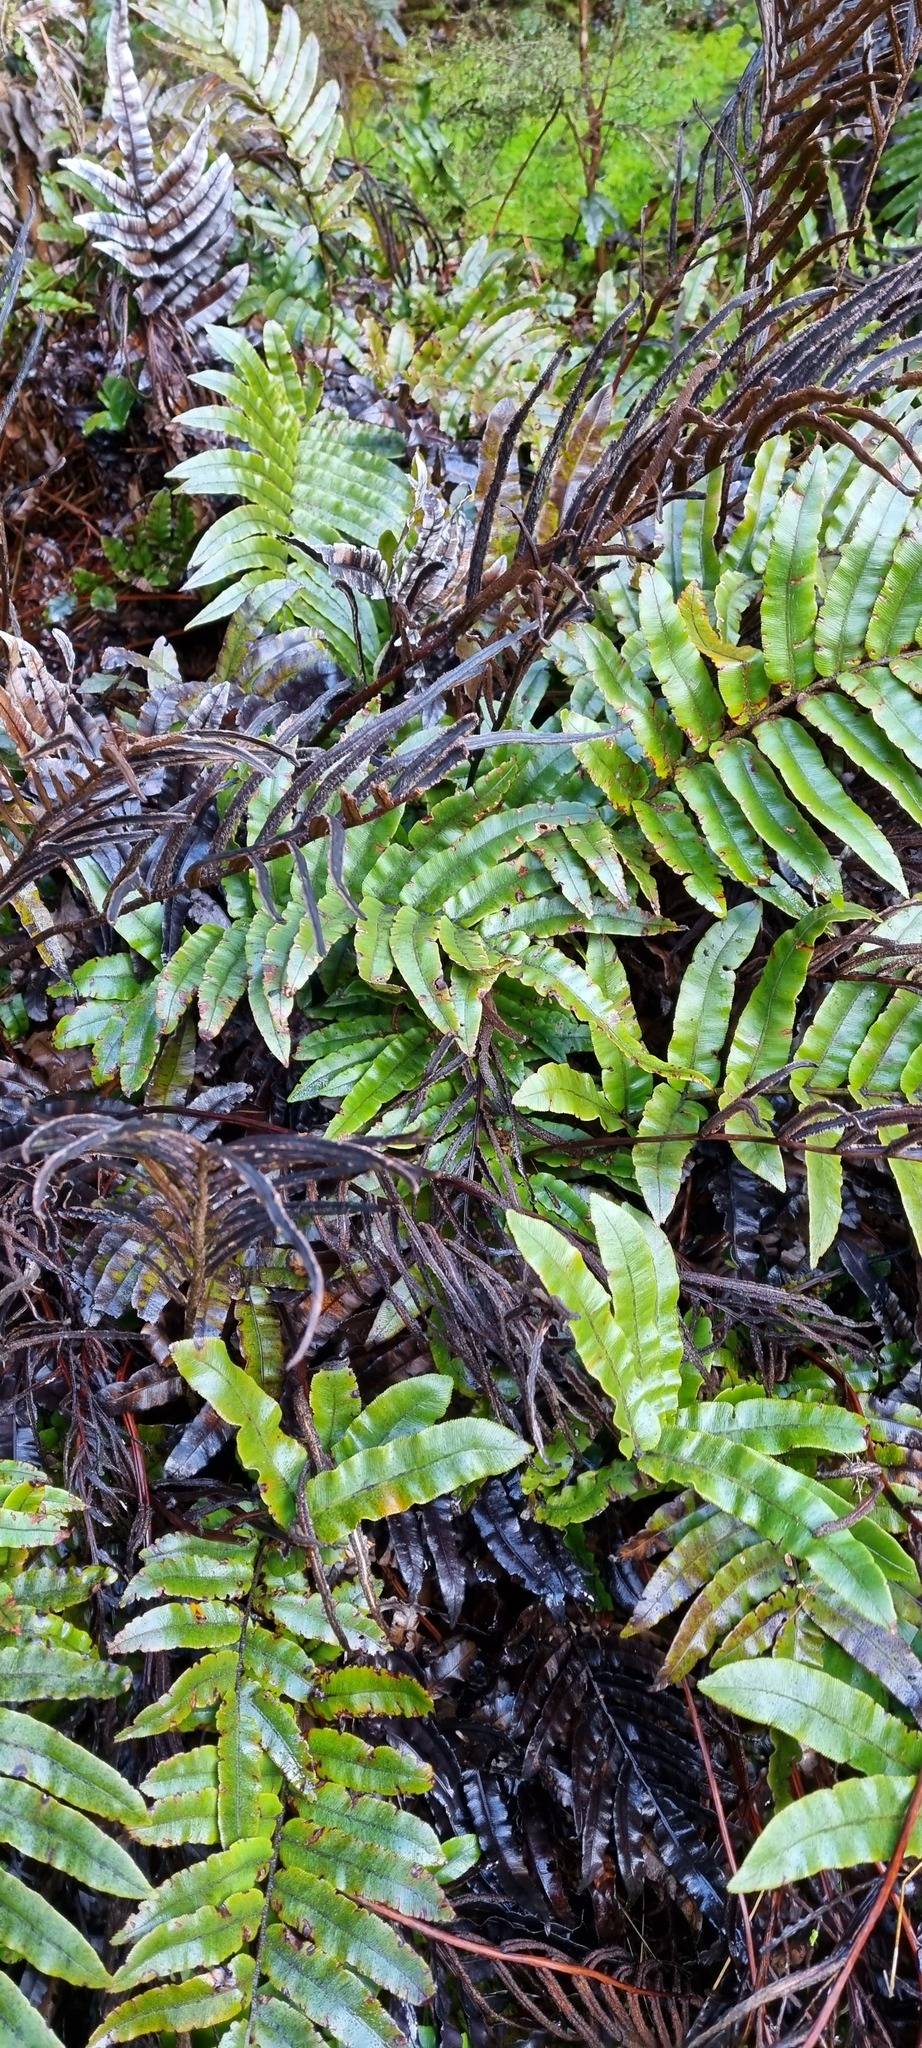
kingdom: Plantae
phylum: Tracheophyta
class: Polypodiopsida
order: Polypodiales
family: Blechnaceae
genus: Parablechnum
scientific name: Parablechnum procerum
